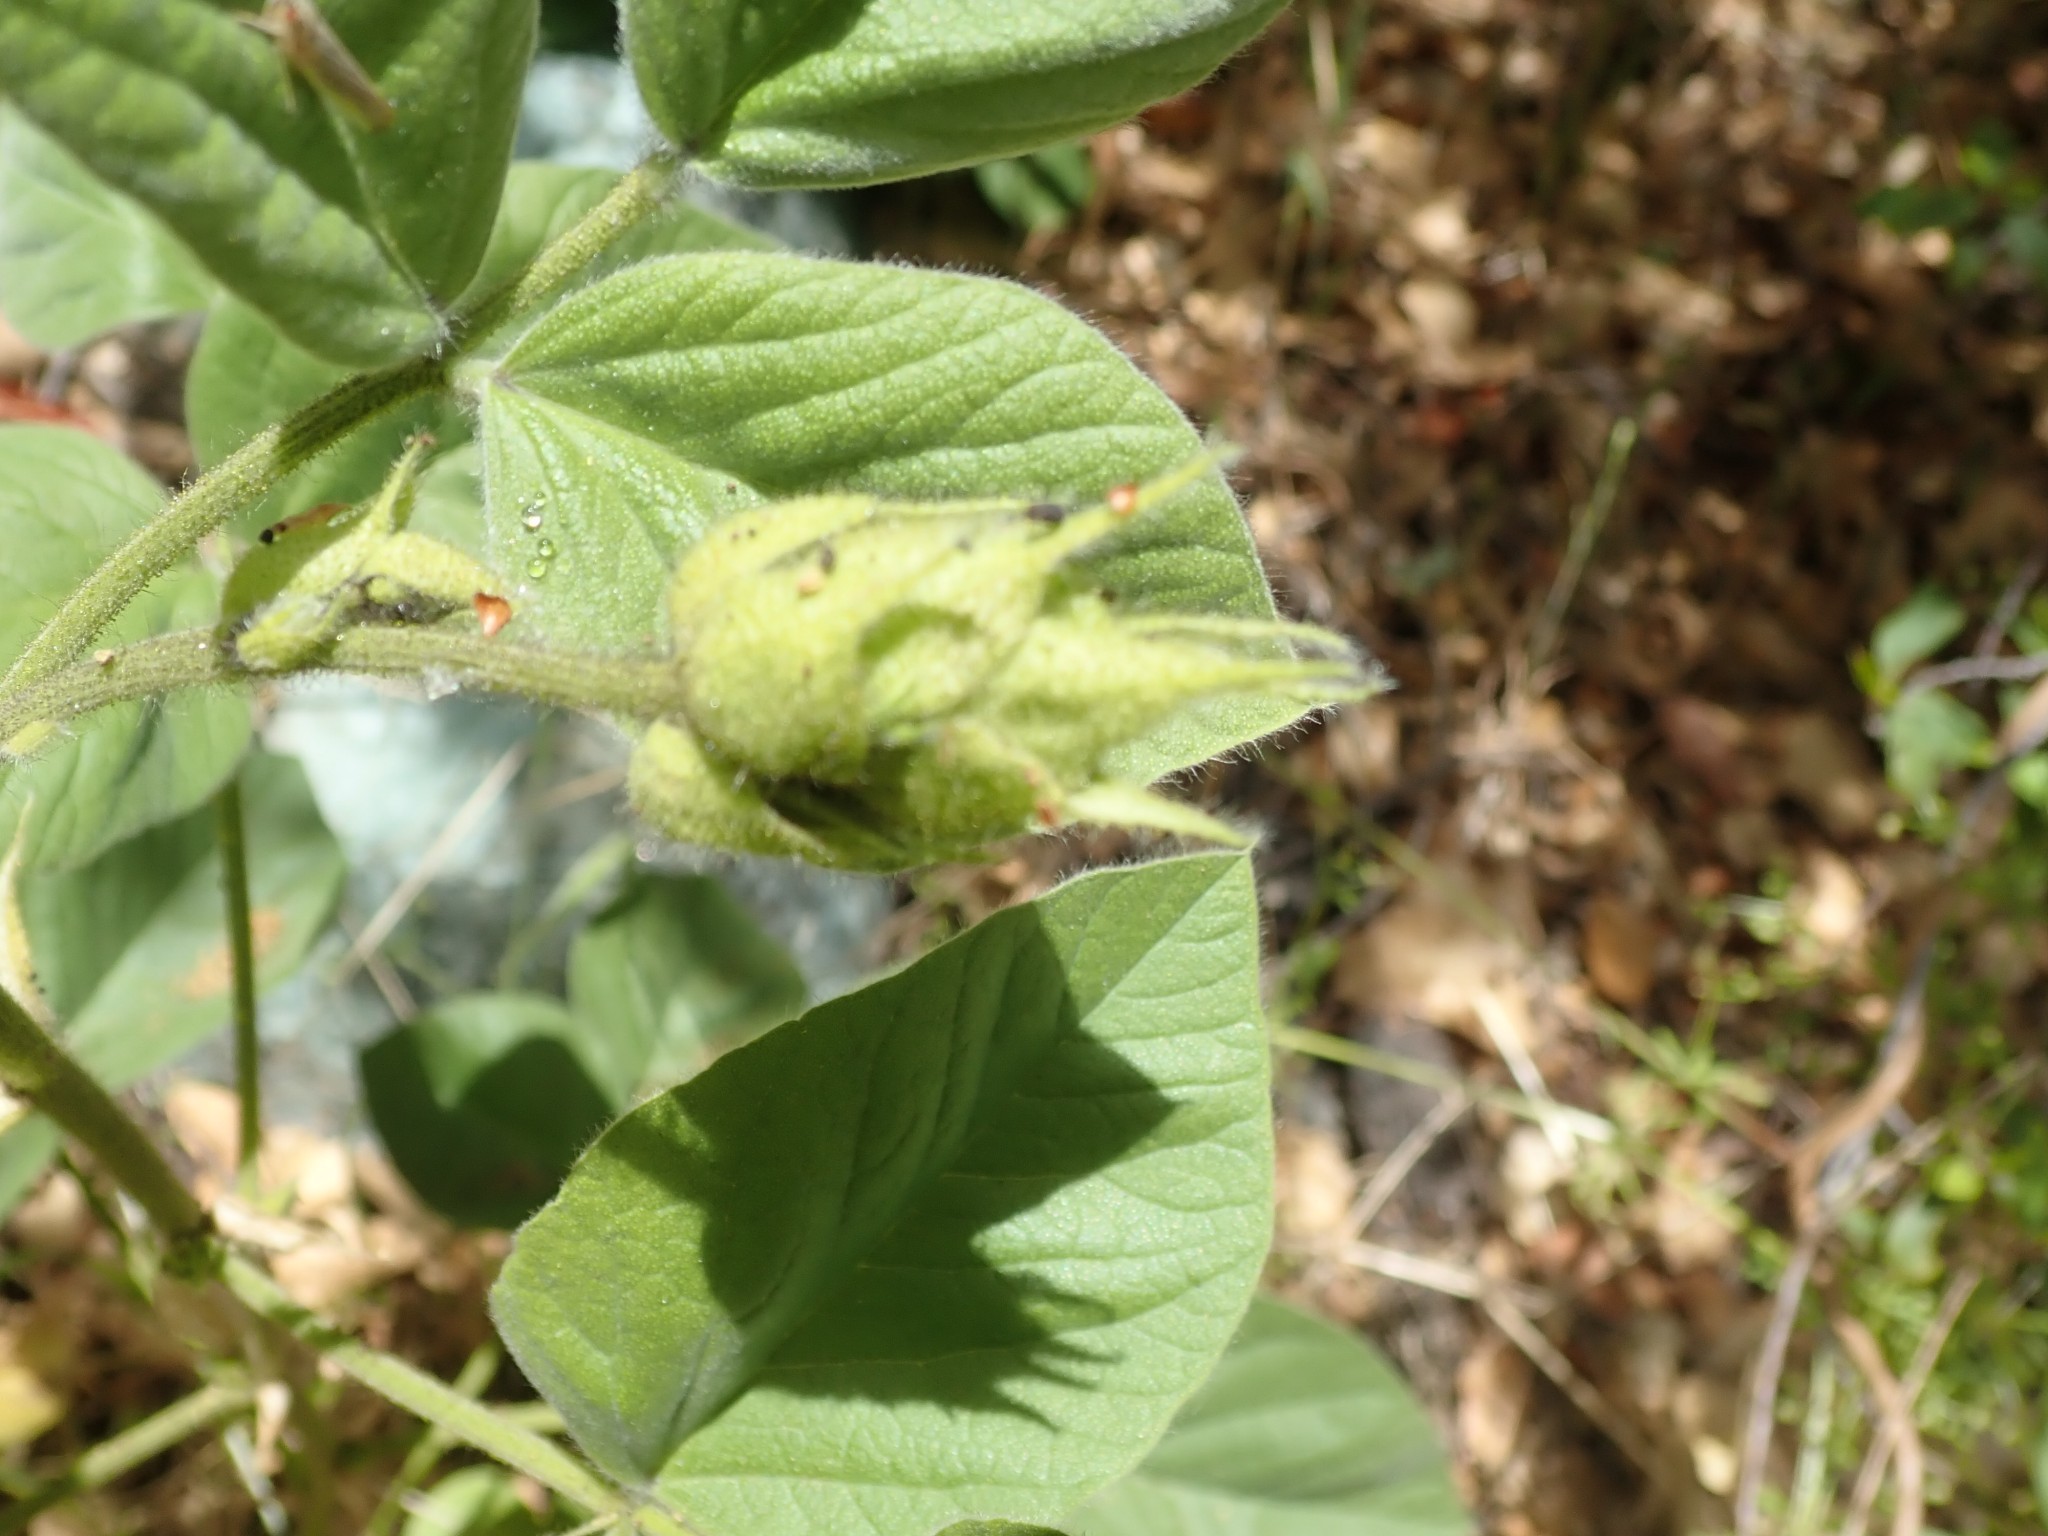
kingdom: Plantae
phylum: Tracheophyta
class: Magnoliopsida
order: Fabales
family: Fabaceae
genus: Hoita
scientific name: Hoita strobilina
